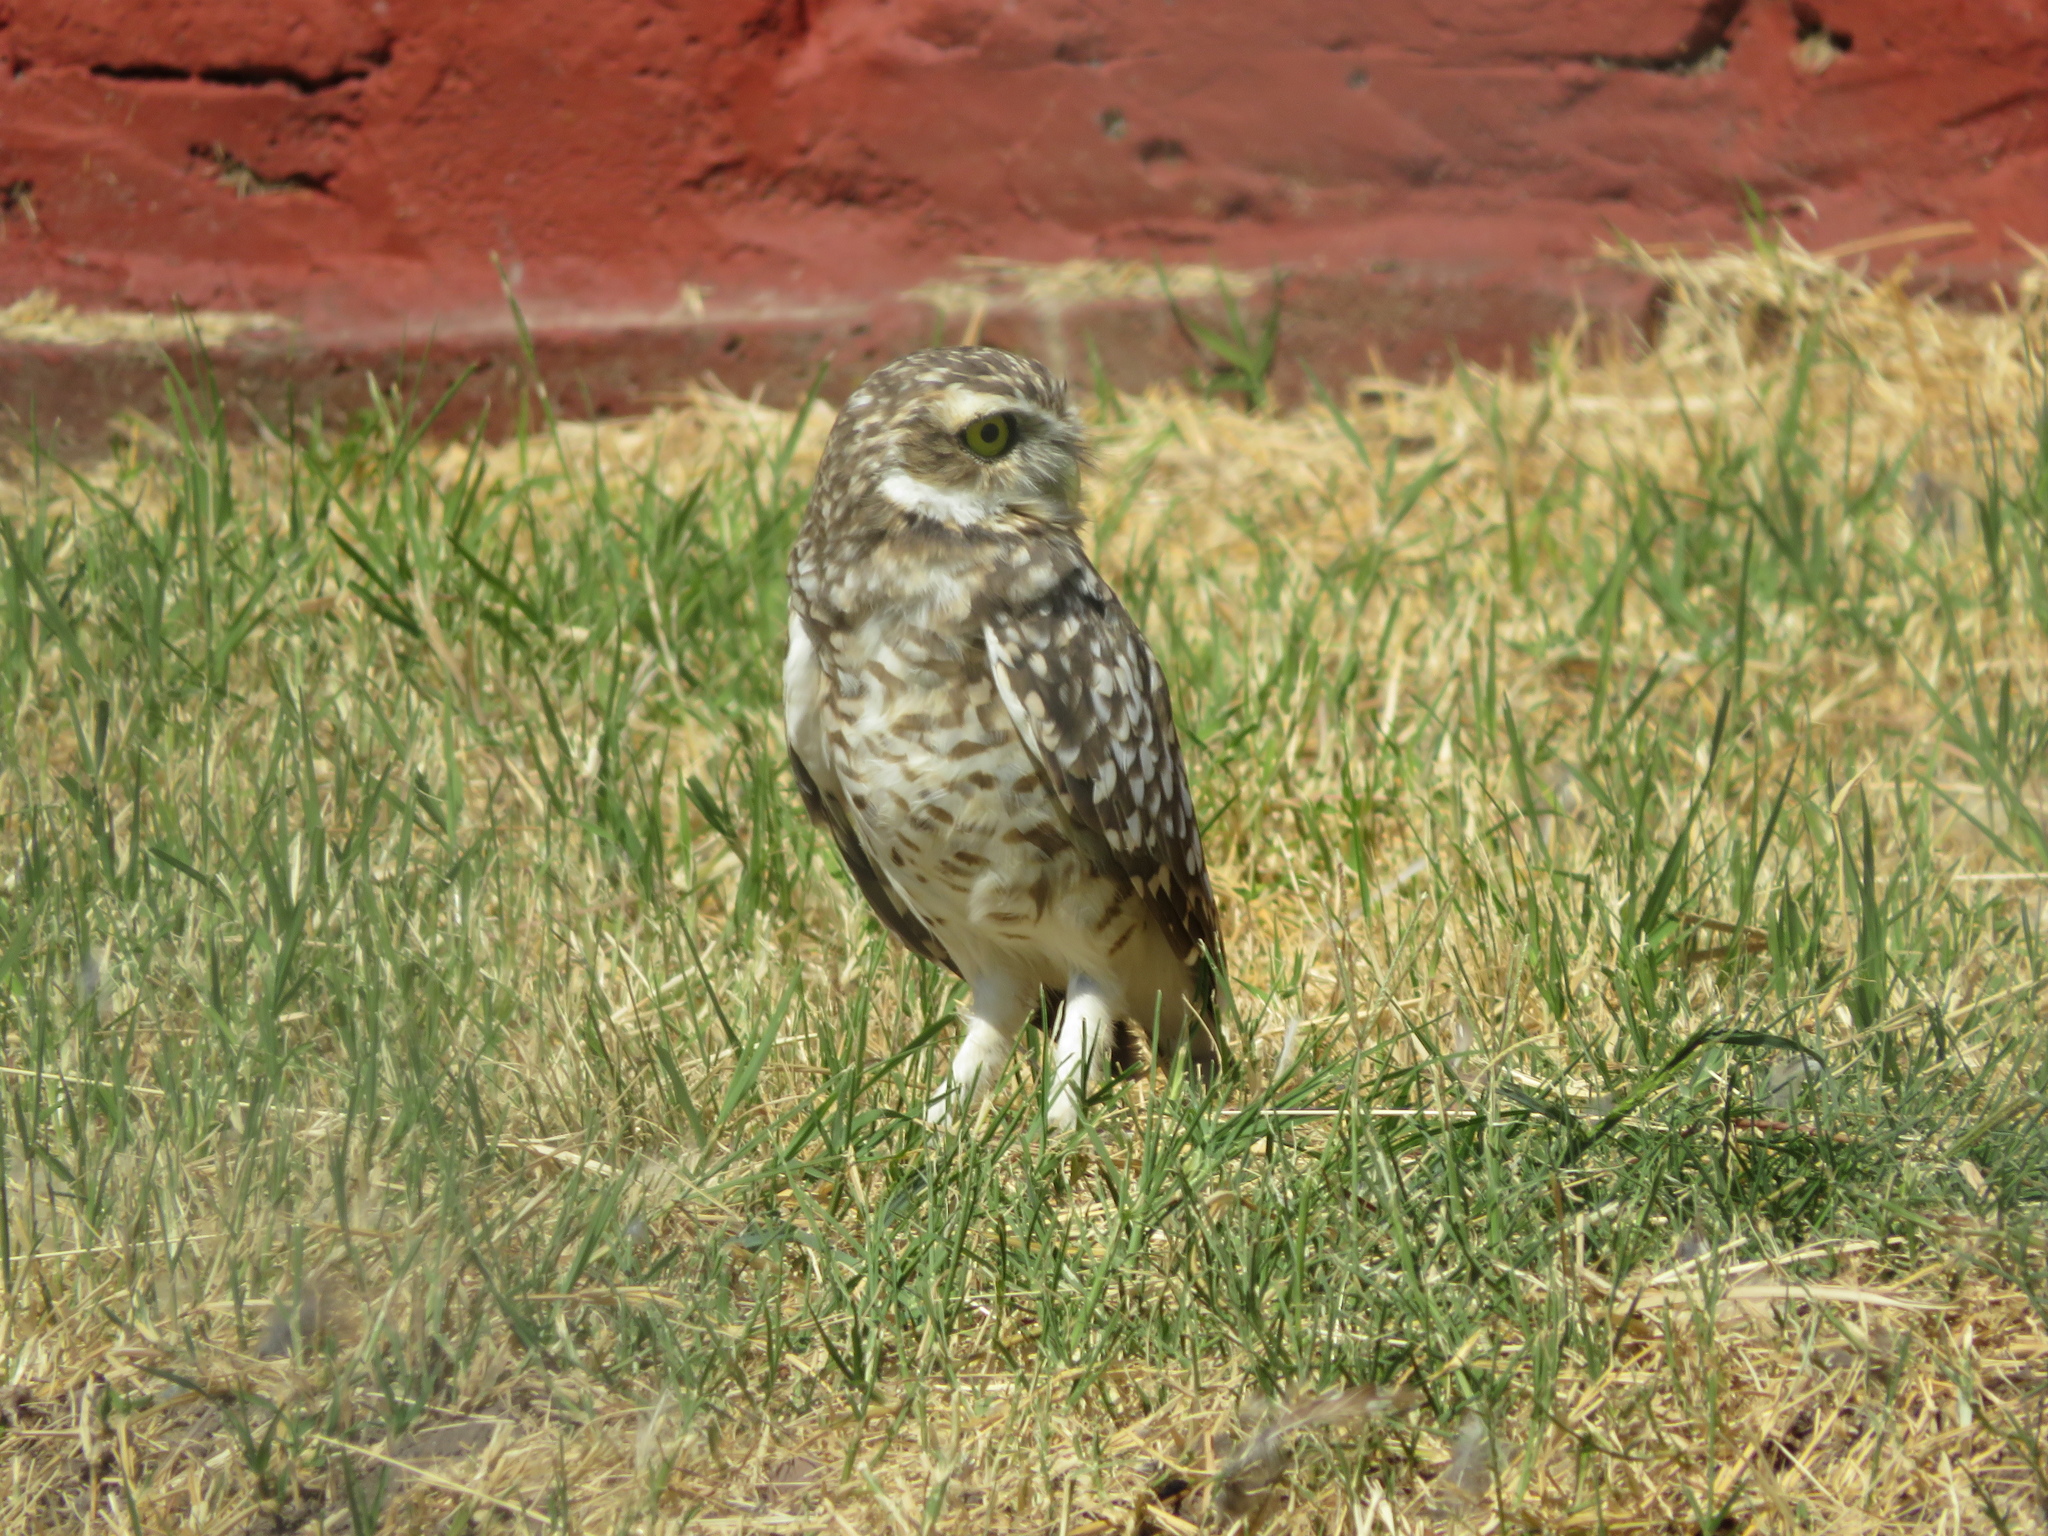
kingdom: Animalia
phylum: Chordata
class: Aves
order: Strigiformes
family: Strigidae
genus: Athene
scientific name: Athene cunicularia
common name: Burrowing owl
